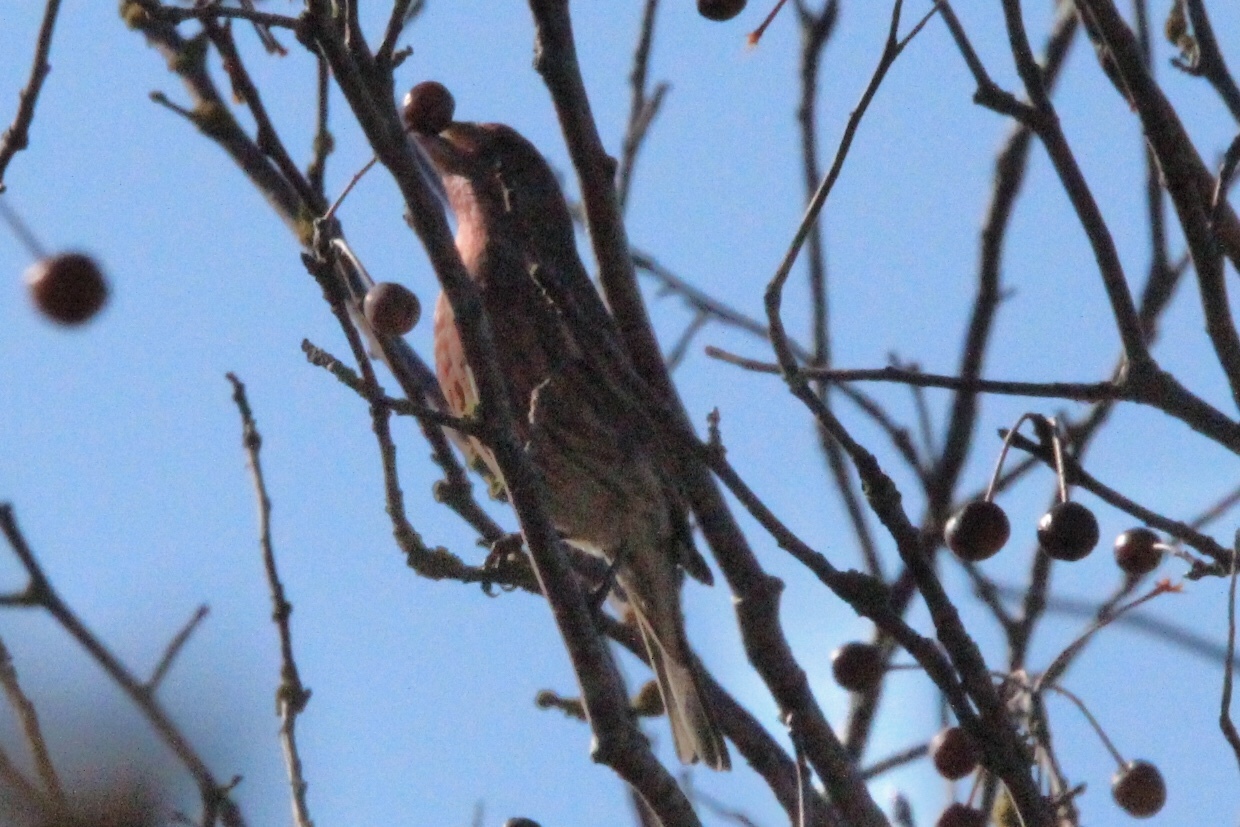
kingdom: Animalia
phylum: Chordata
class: Aves
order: Passeriformes
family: Fringillidae
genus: Haemorhous
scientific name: Haemorhous mexicanus
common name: House finch
